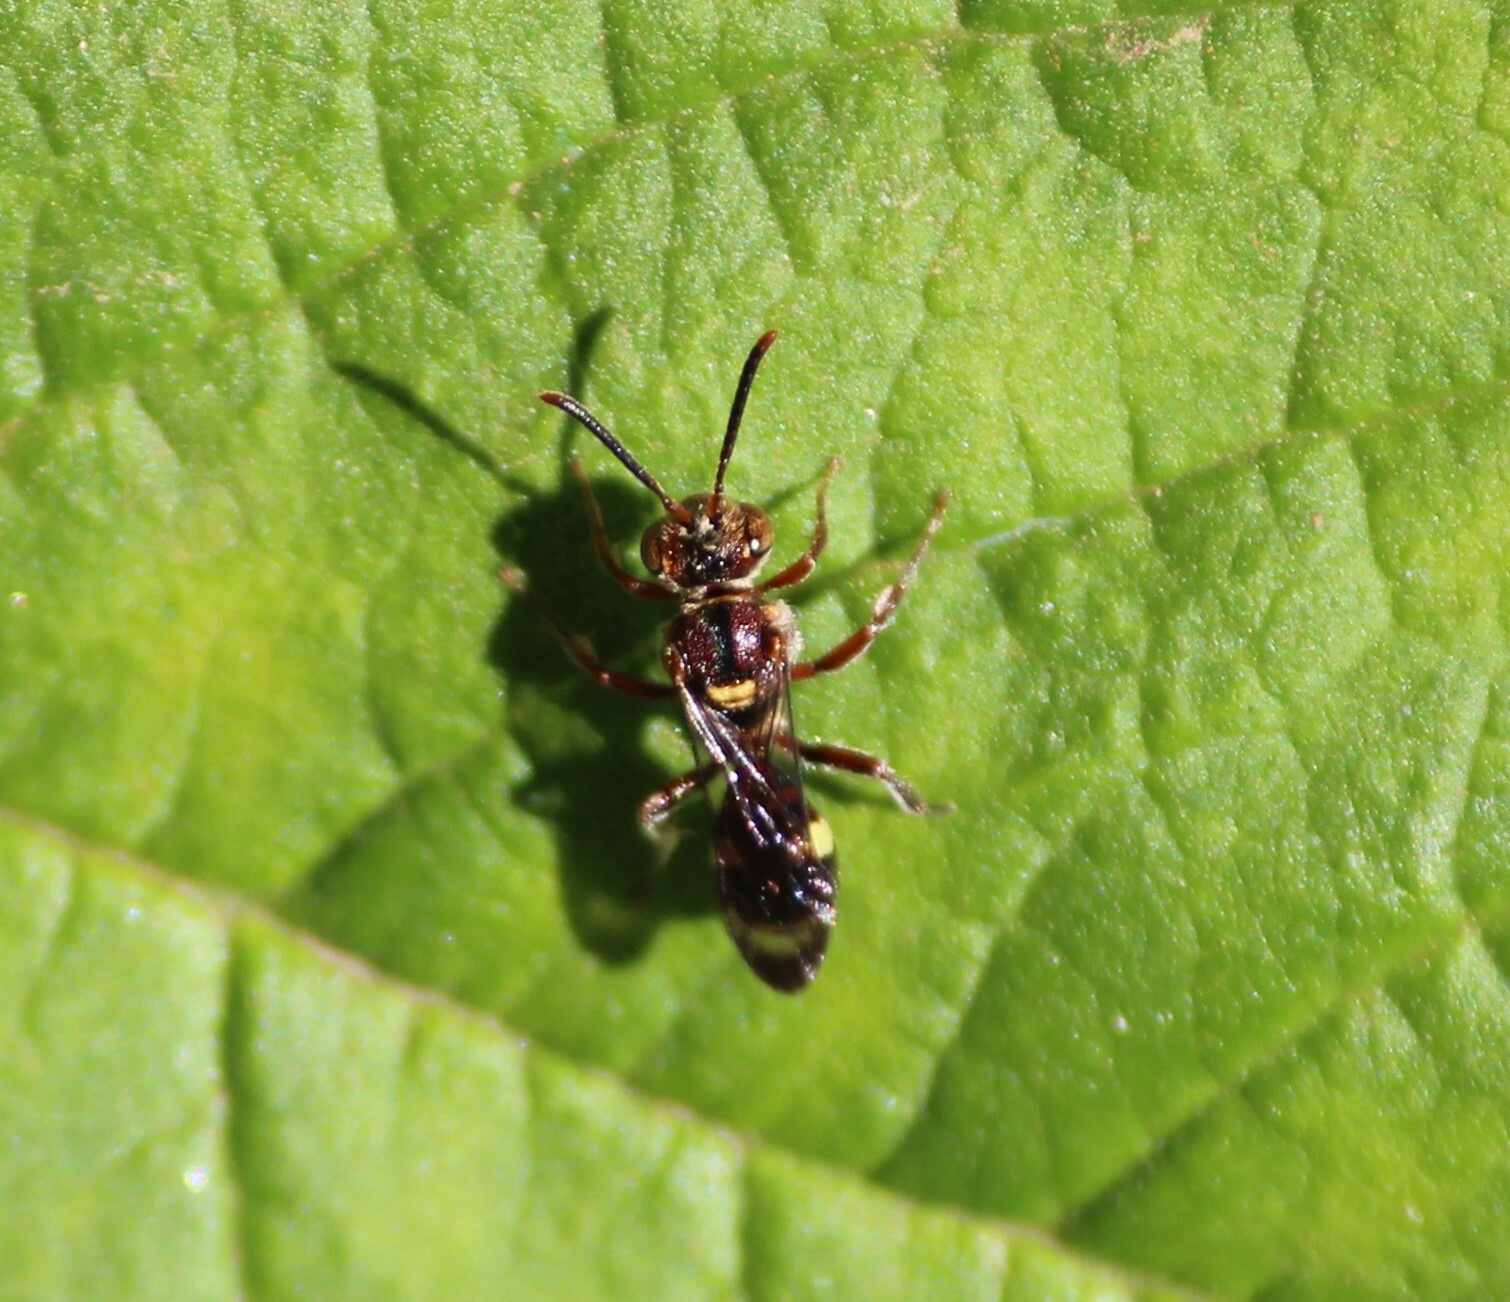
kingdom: Animalia
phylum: Arthropoda
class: Insecta
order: Hymenoptera
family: Apidae
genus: Nomada
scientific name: Nomada
